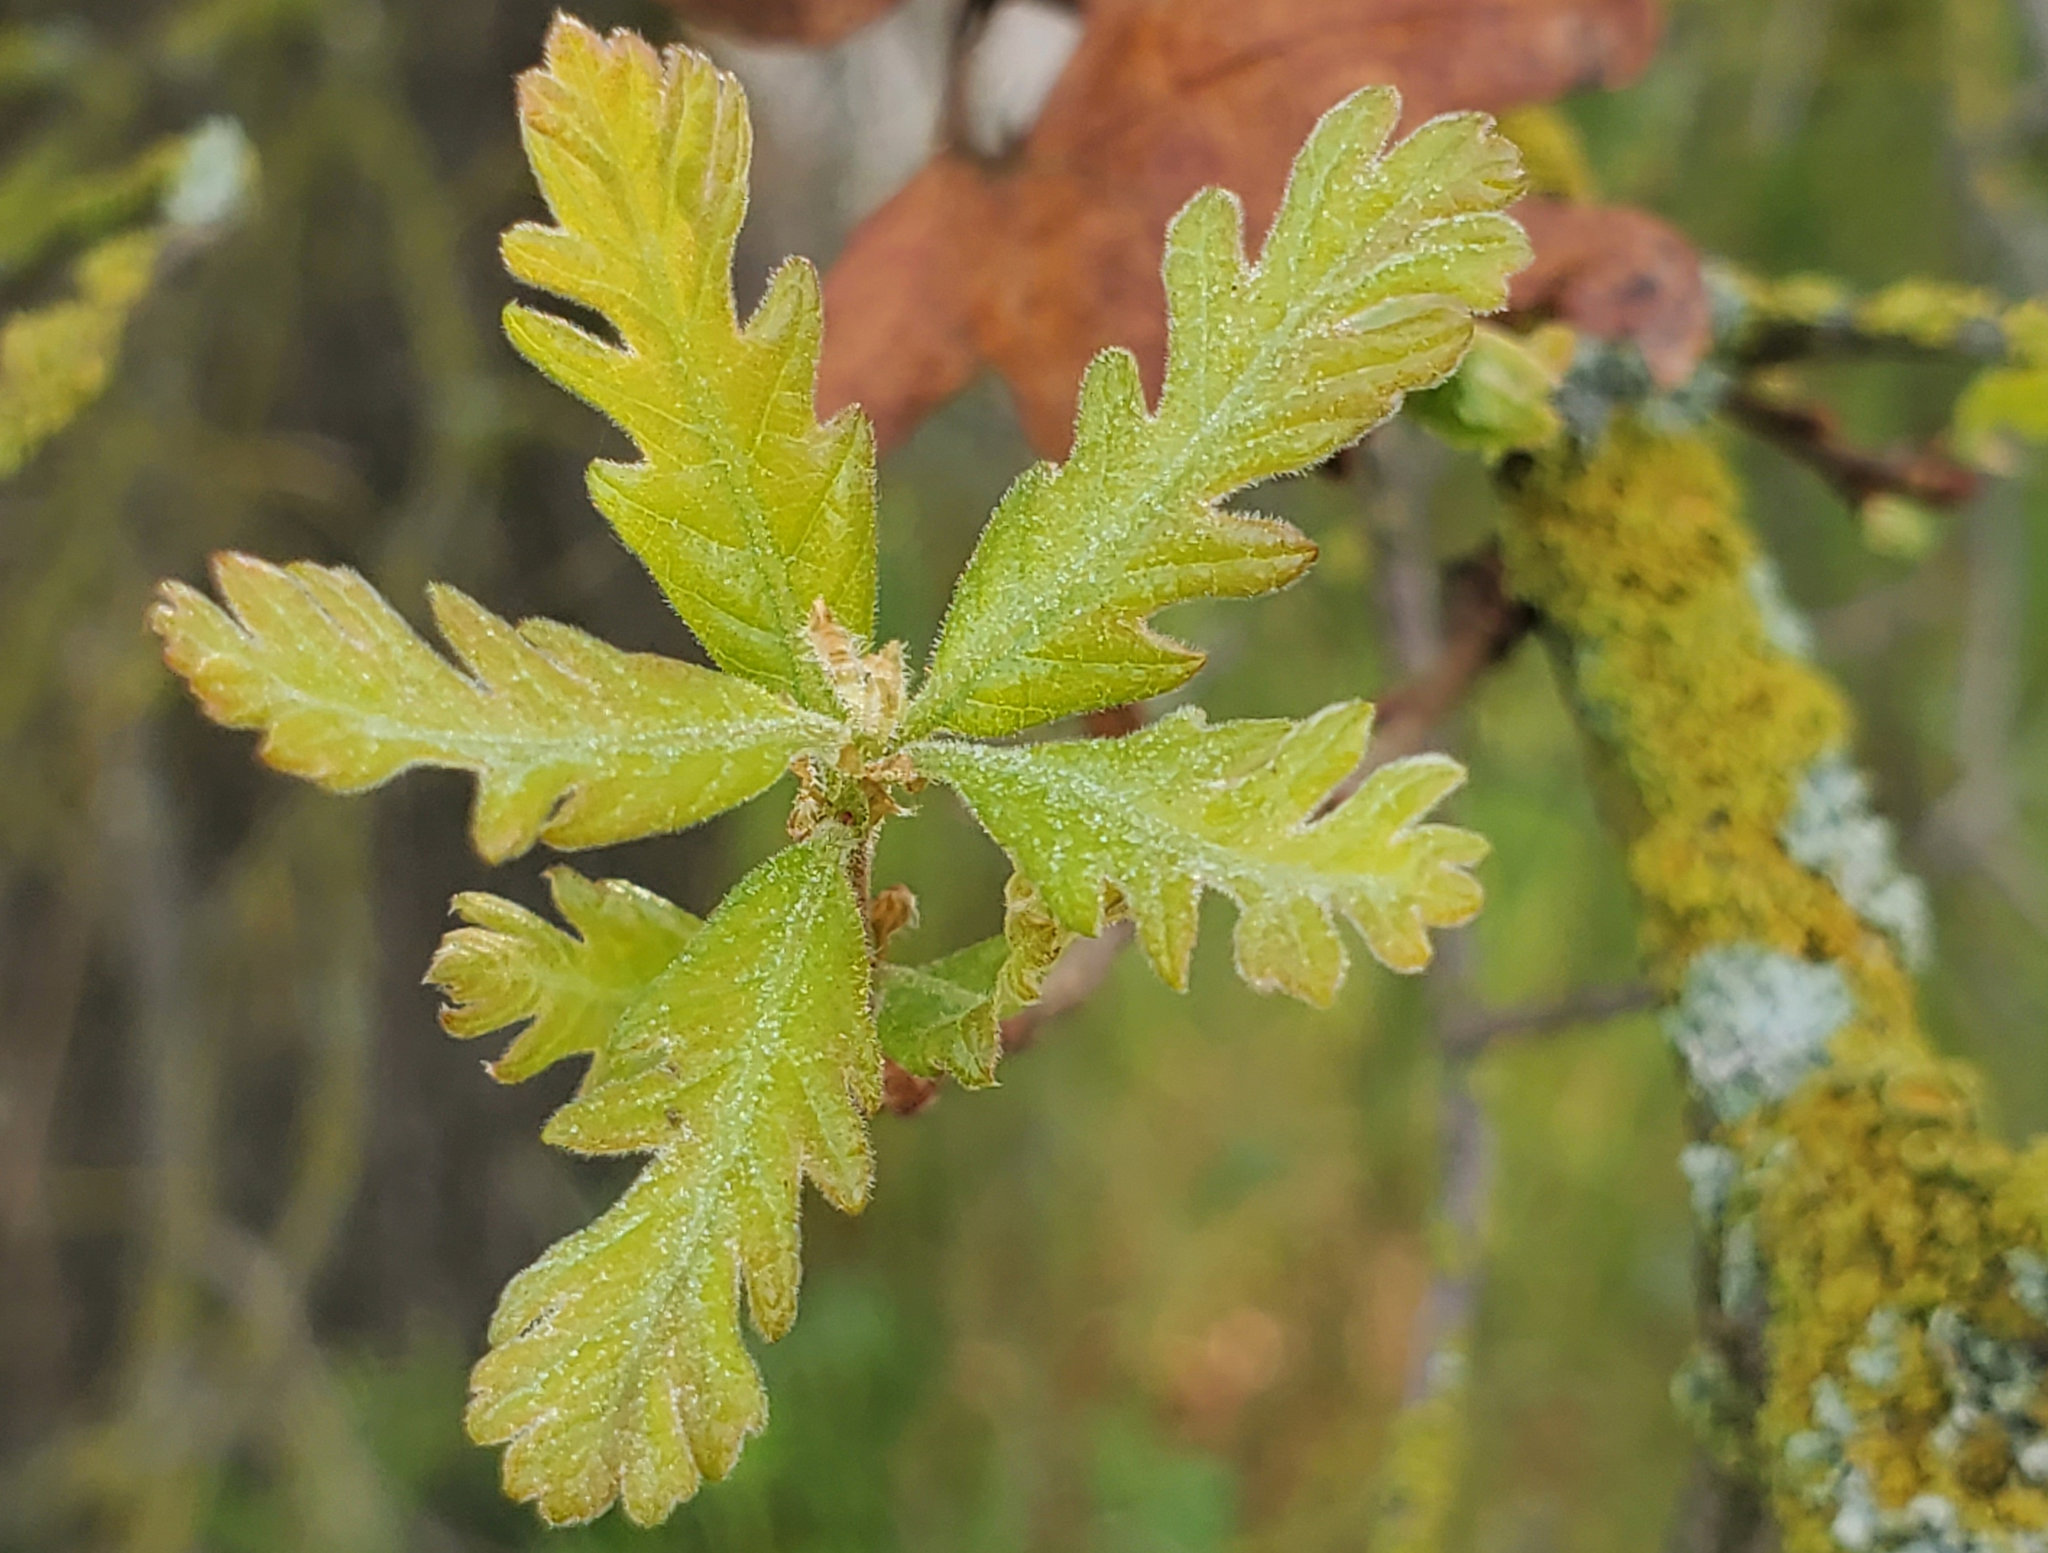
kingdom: Plantae
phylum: Tracheophyta
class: Magnoliopsida
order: Fagales
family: Fagaceae
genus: Quercus
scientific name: Quercus lobata
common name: Valley oak
